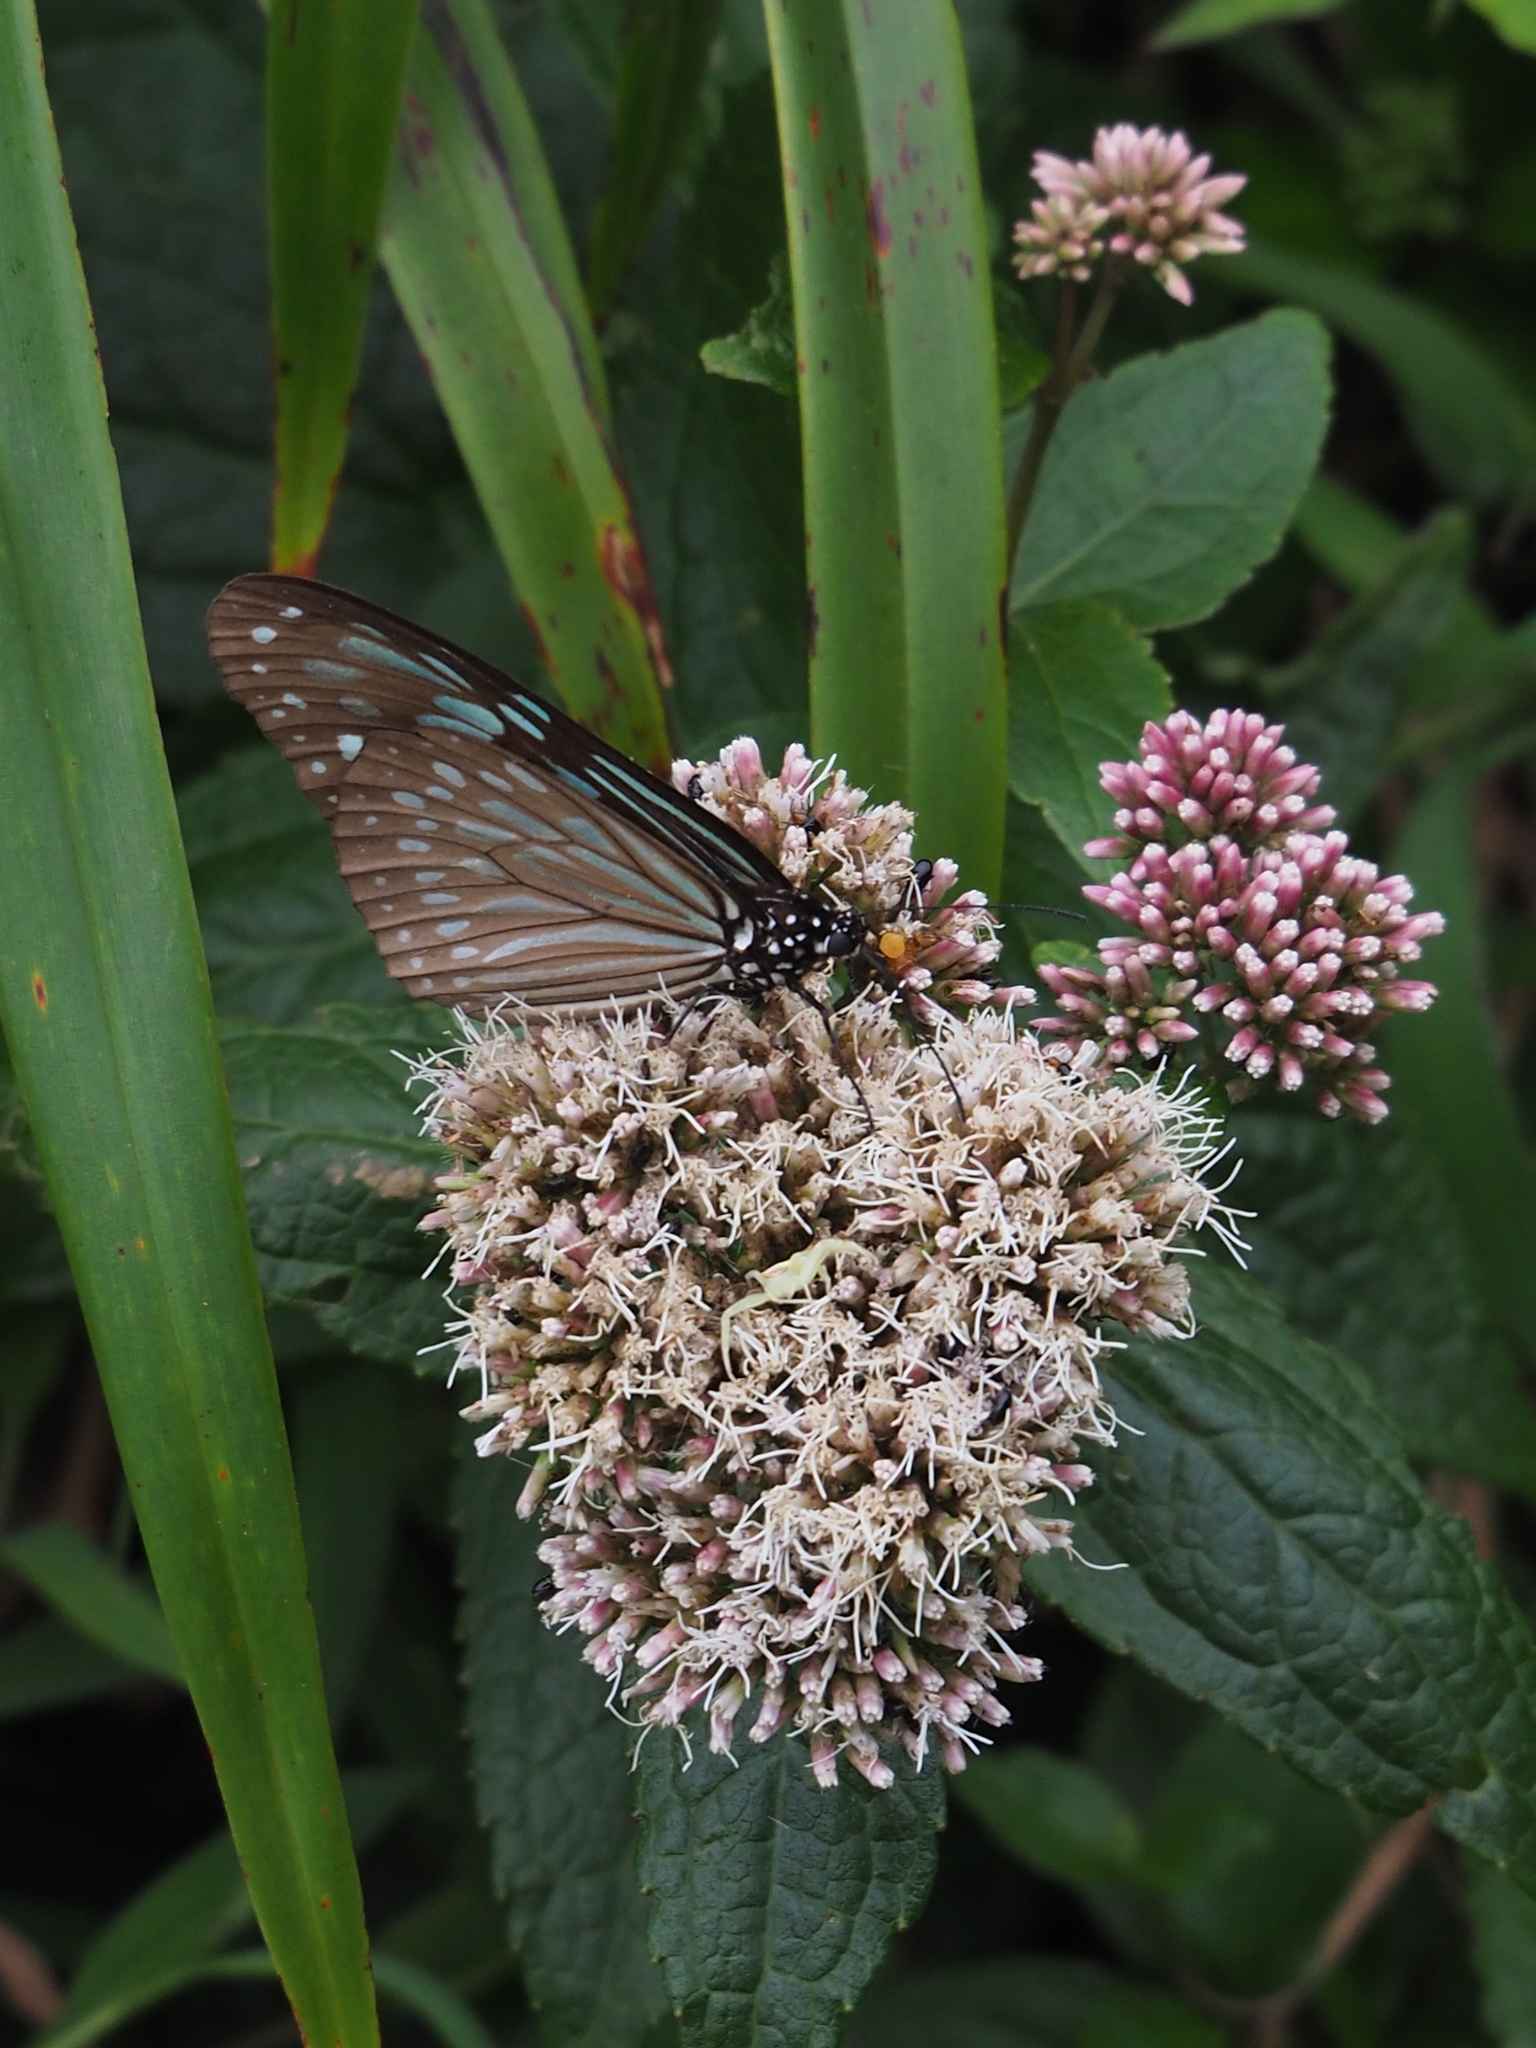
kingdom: Animalia
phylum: Arthropoda
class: Insecta
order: Lepidoptera
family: Nymphalidae
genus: Ideopsis
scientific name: Ideopsis similis
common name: Ceylon blue glassy tiger
